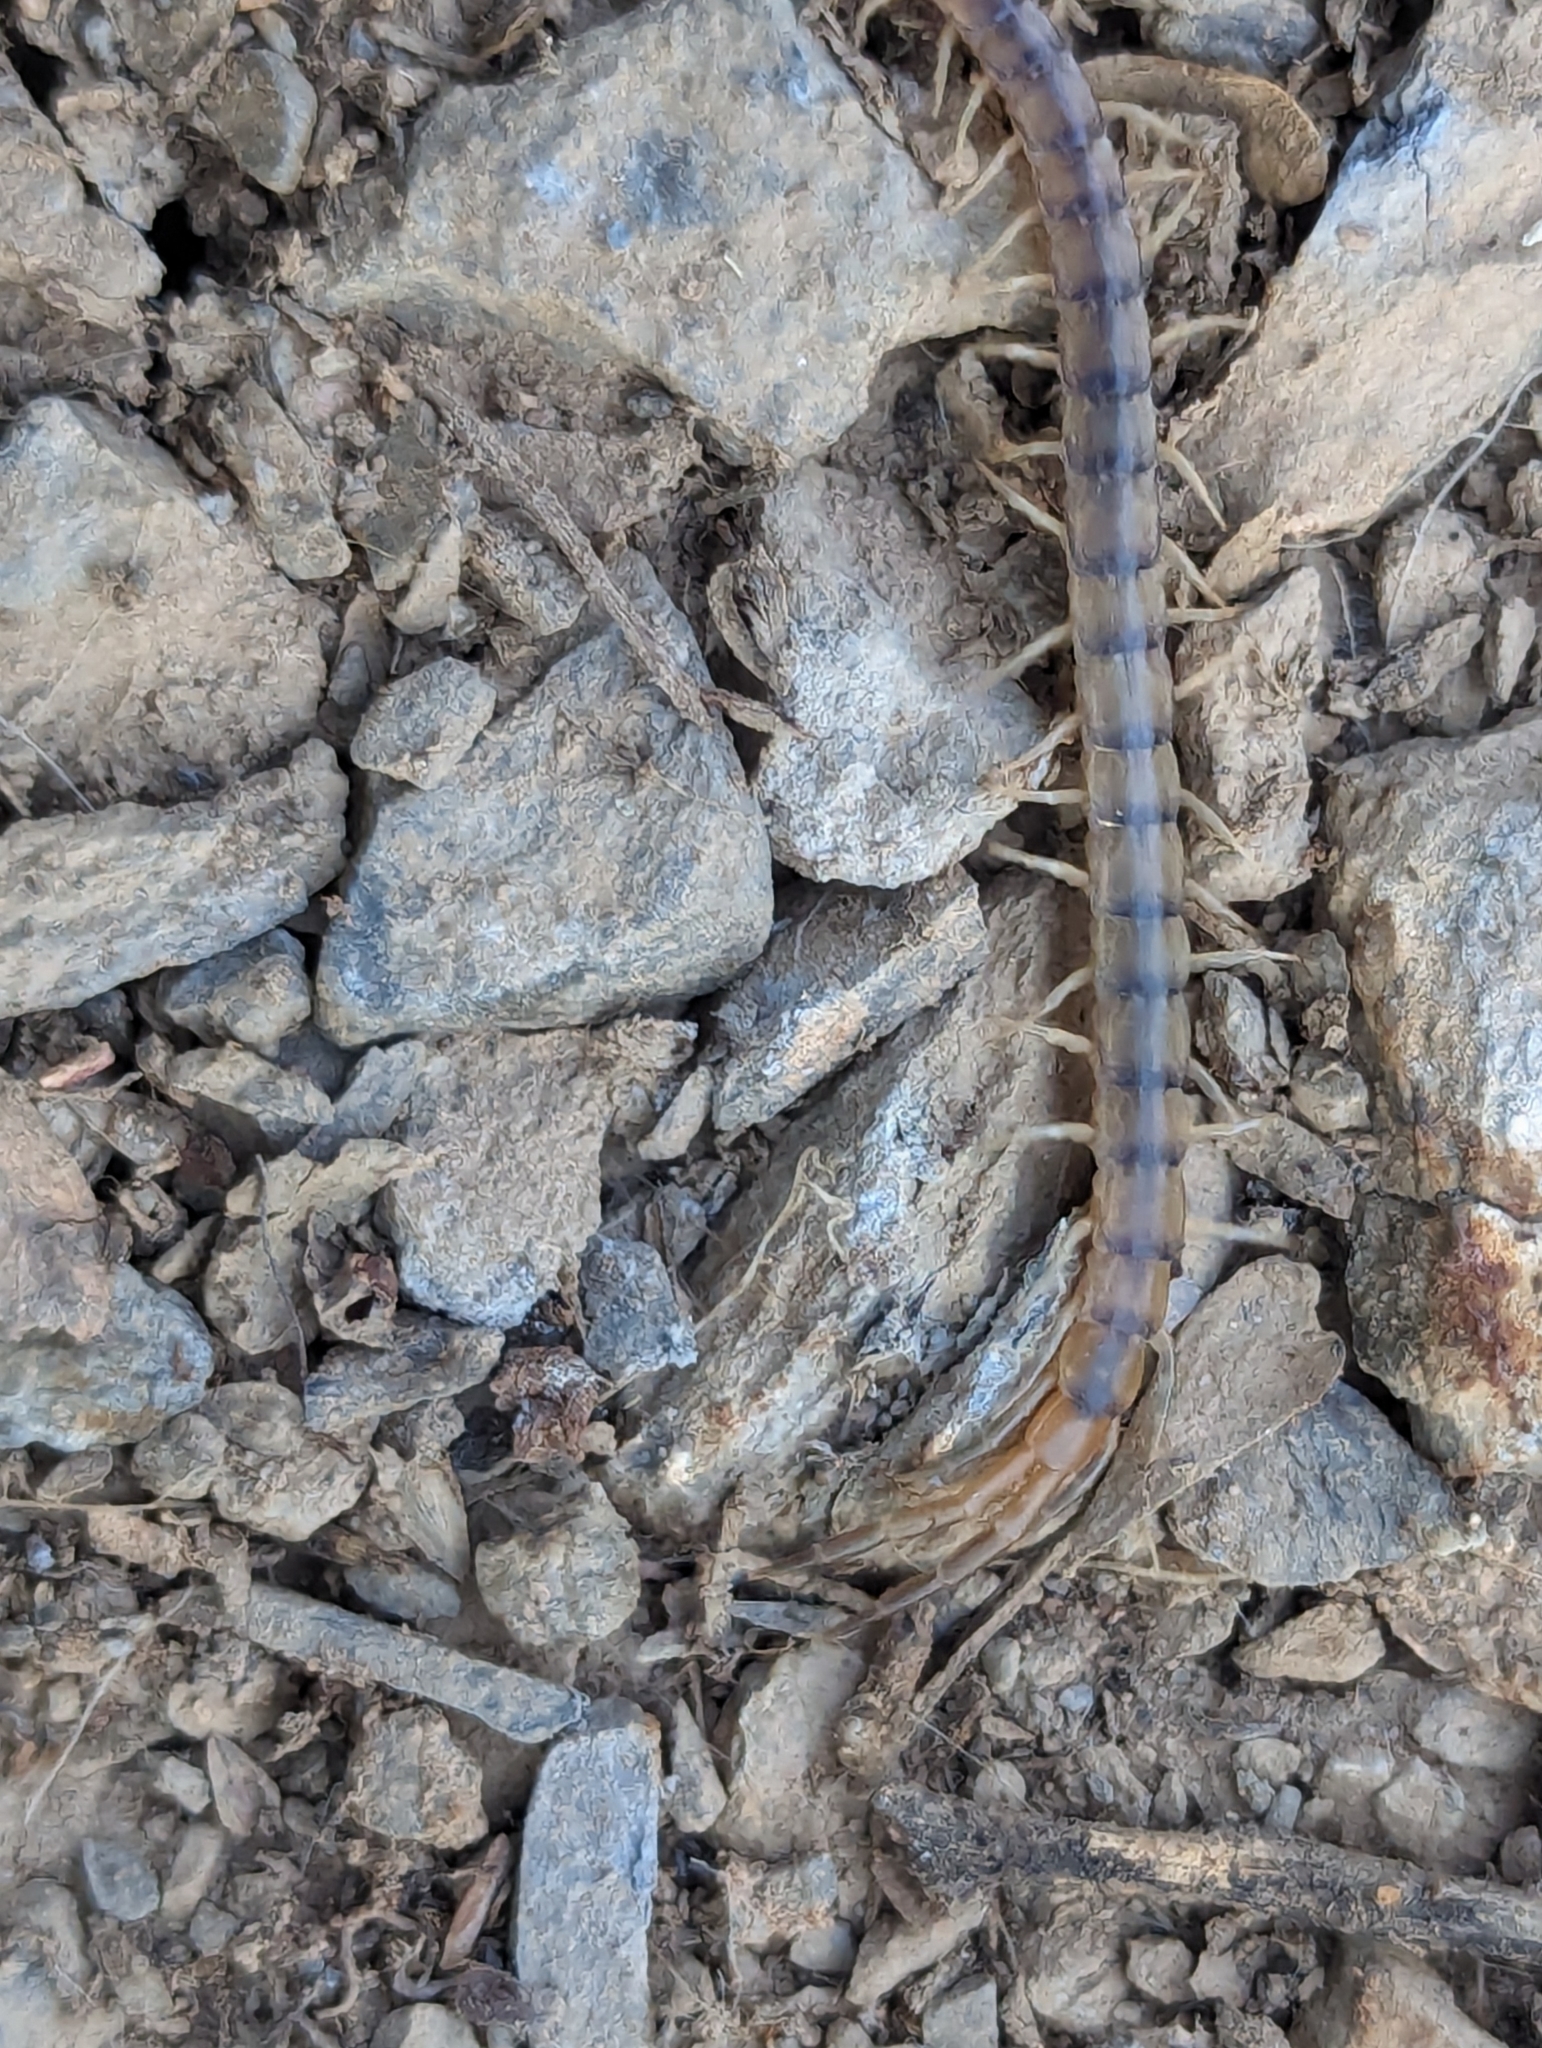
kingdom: Animalia
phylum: Arthropoda
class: Chilopoda
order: Scolopendromorpha
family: Scolopendridae
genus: Scolopendra
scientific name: Scolopendra polymorpha
